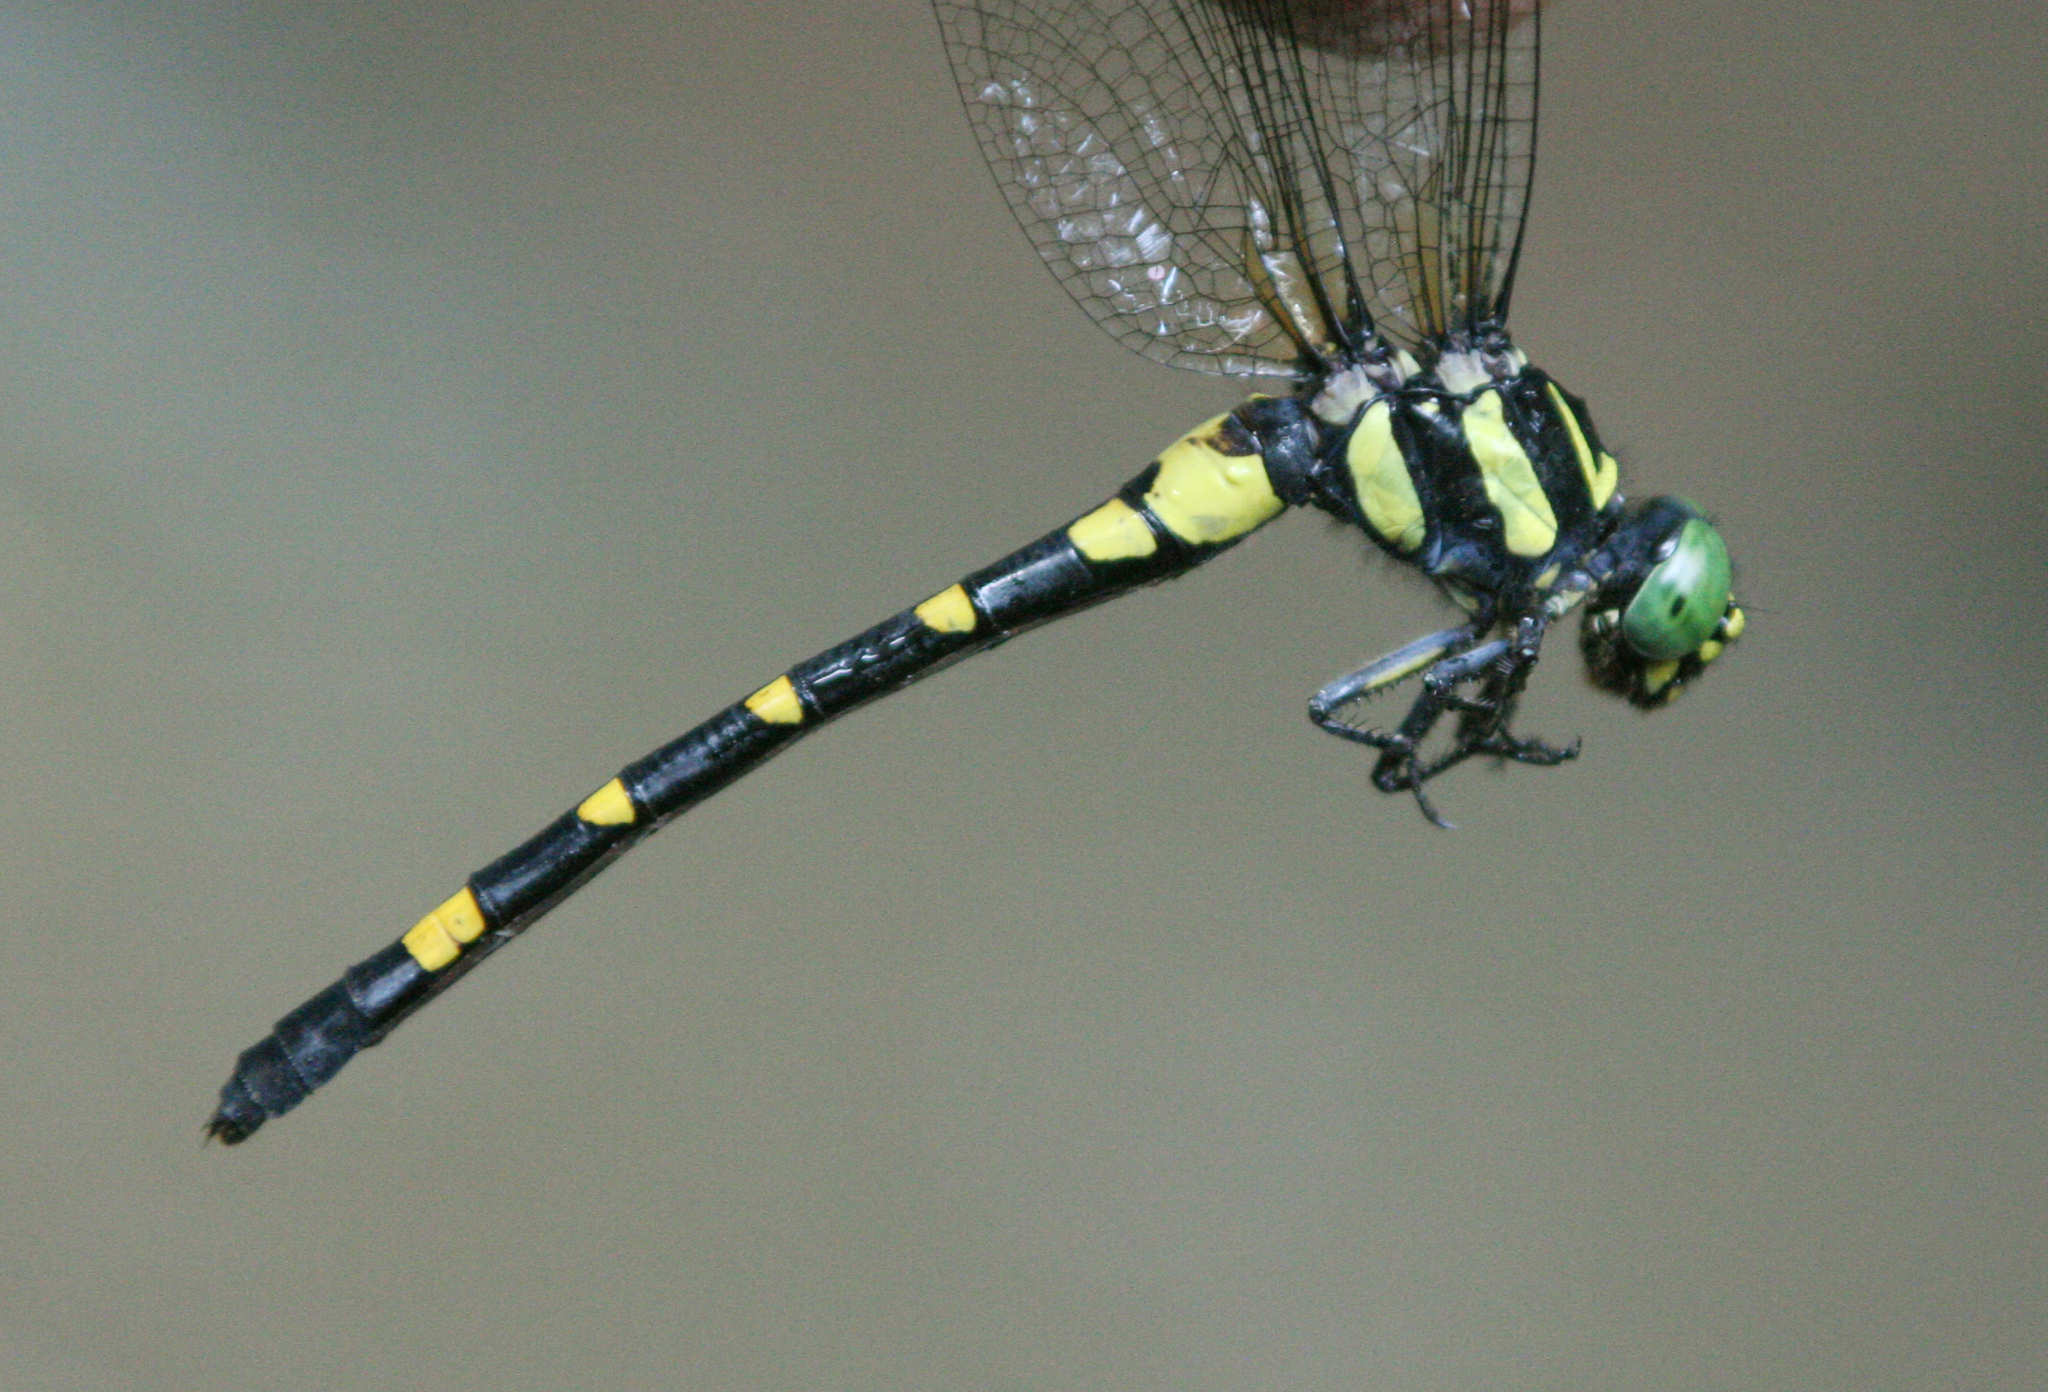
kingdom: Animalia
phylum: Arthropoda
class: Insecta
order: Odonata
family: Gomphidae
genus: Lamelligomphus
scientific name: Lamelligomphus castor
